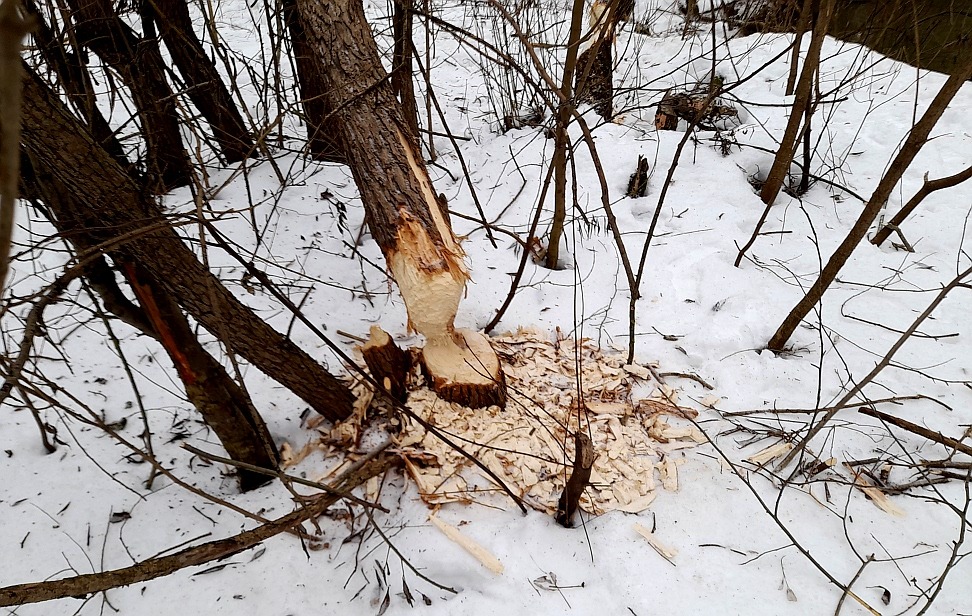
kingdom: Animalia
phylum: Chordata
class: Mammalia
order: Rodentia
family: Castoridae
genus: Castor
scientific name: Castor fiber
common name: Eurasian beaver
